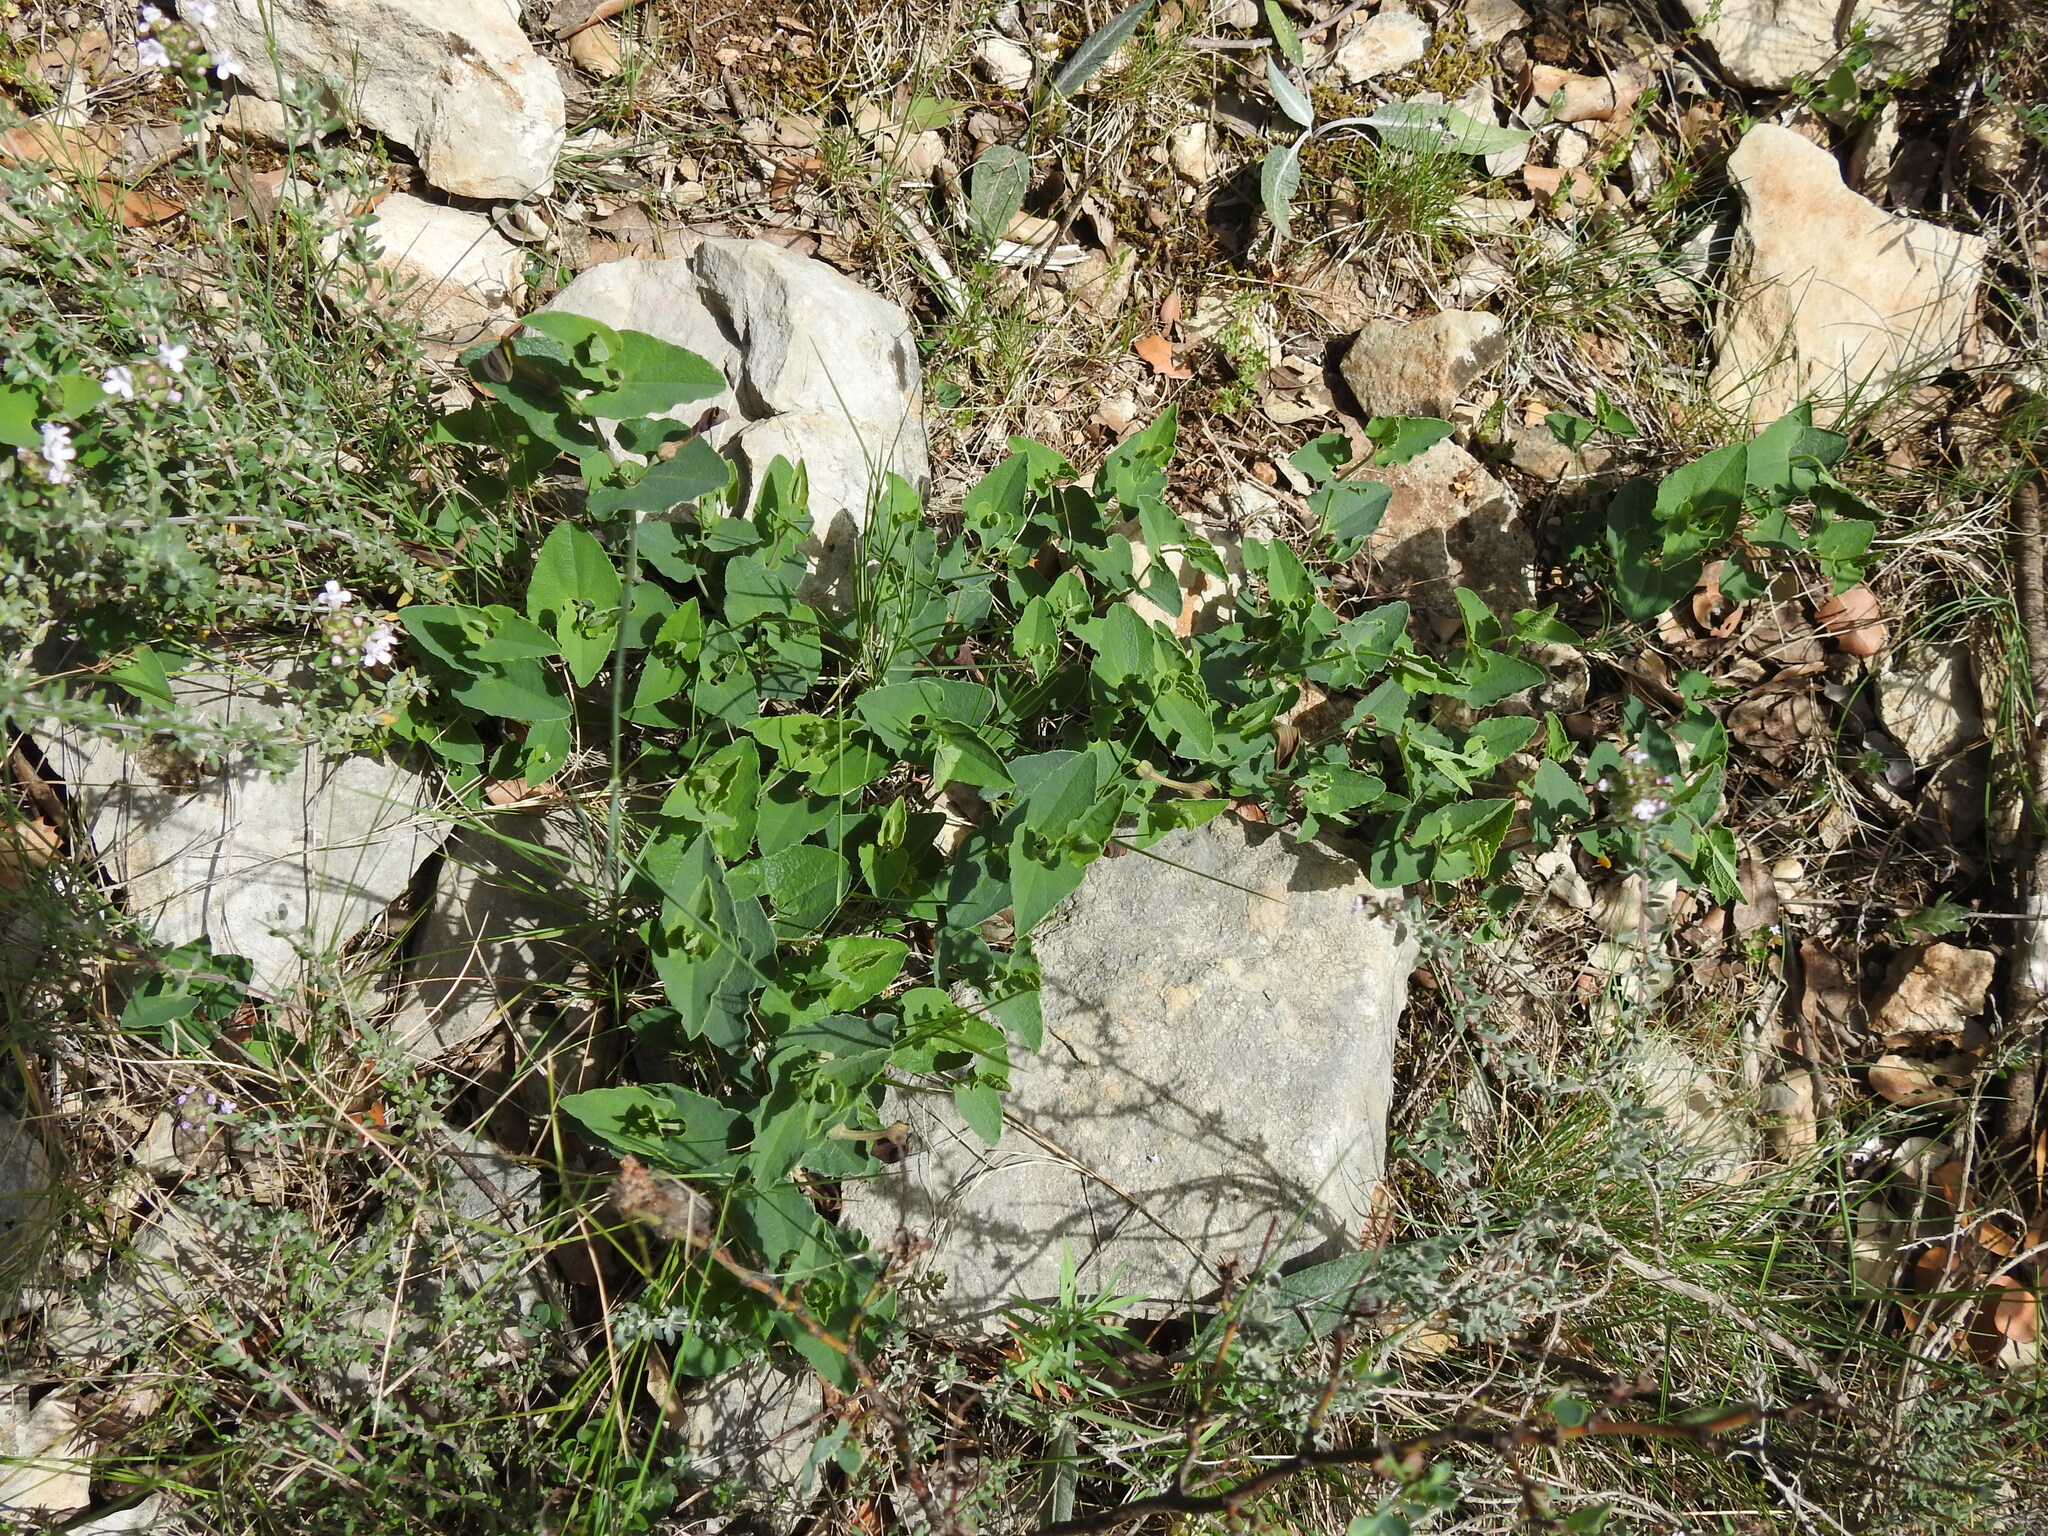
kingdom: Plantae
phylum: Tracheophyta
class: Magnoliopsida
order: Piperales
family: Aristolochiaceae
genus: Aristolochia
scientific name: Aristolochia pistolochia
